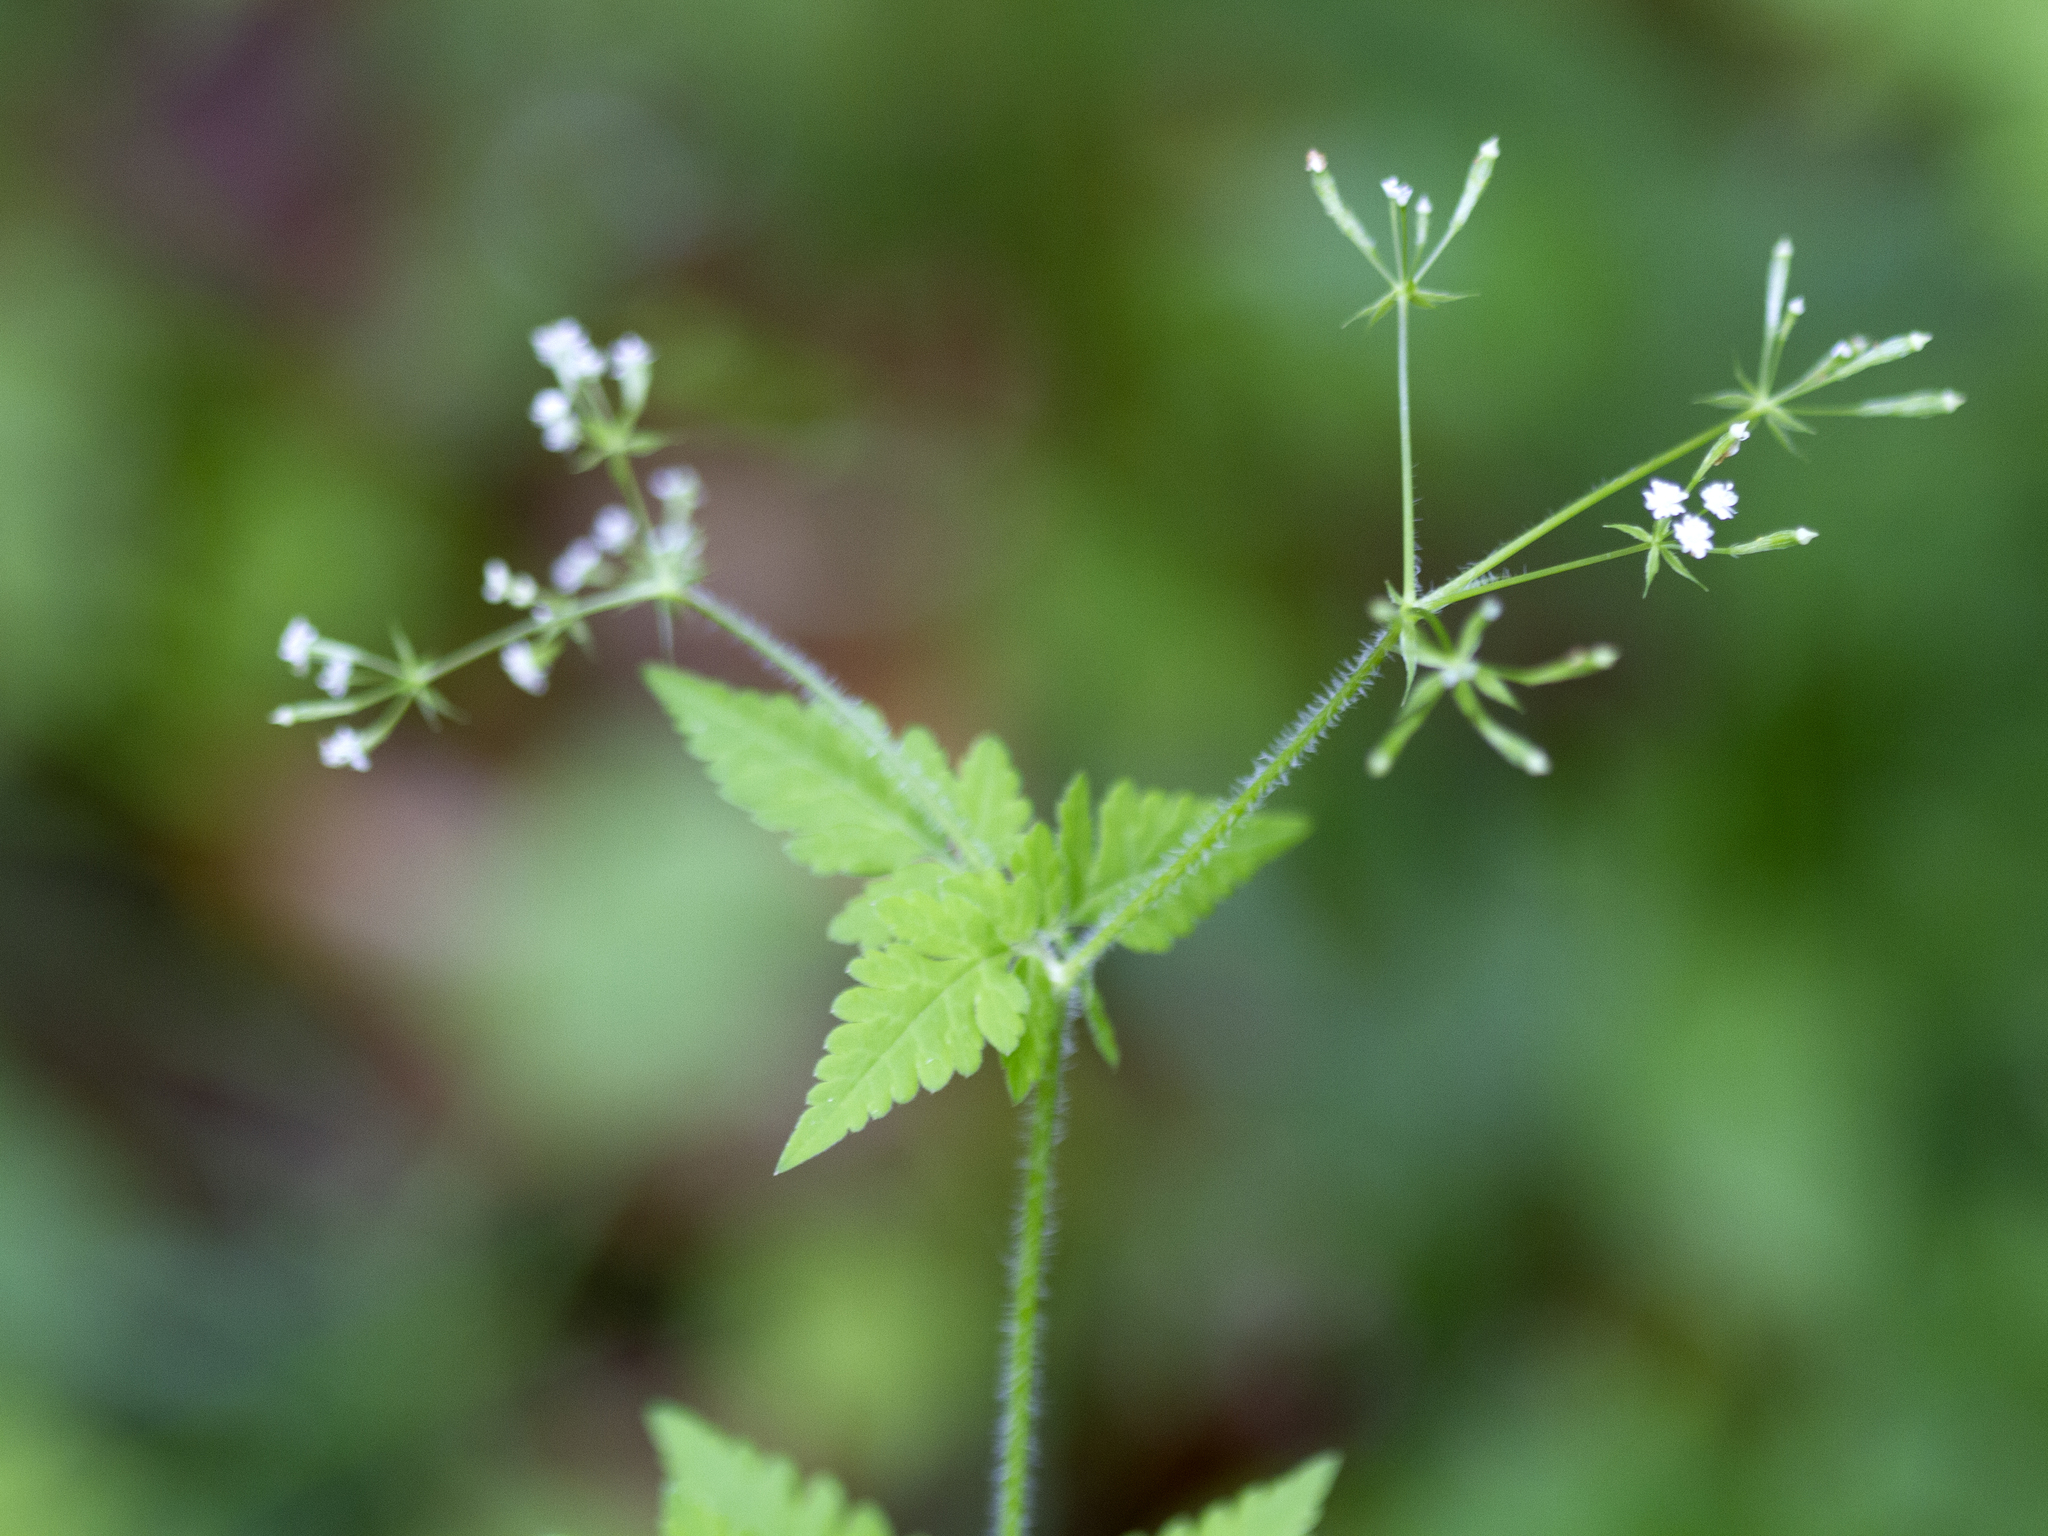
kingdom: Plantae
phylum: Tracheophyta
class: Magnoliopsida
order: Apiales
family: Apiaceae
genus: Osmorhiza
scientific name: Osmorhiza claytonii
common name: Hairy sweet cicely
